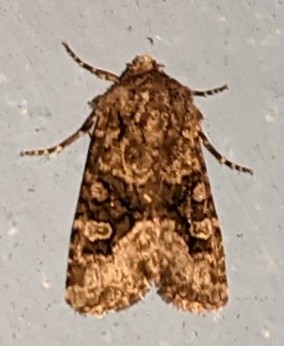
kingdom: Animalia
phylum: Arthropoda
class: Insecta
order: Lepidoptera
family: Noctuidae
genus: Lacinipolia
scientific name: Lacinipolia olivacea
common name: Olive arches moth
